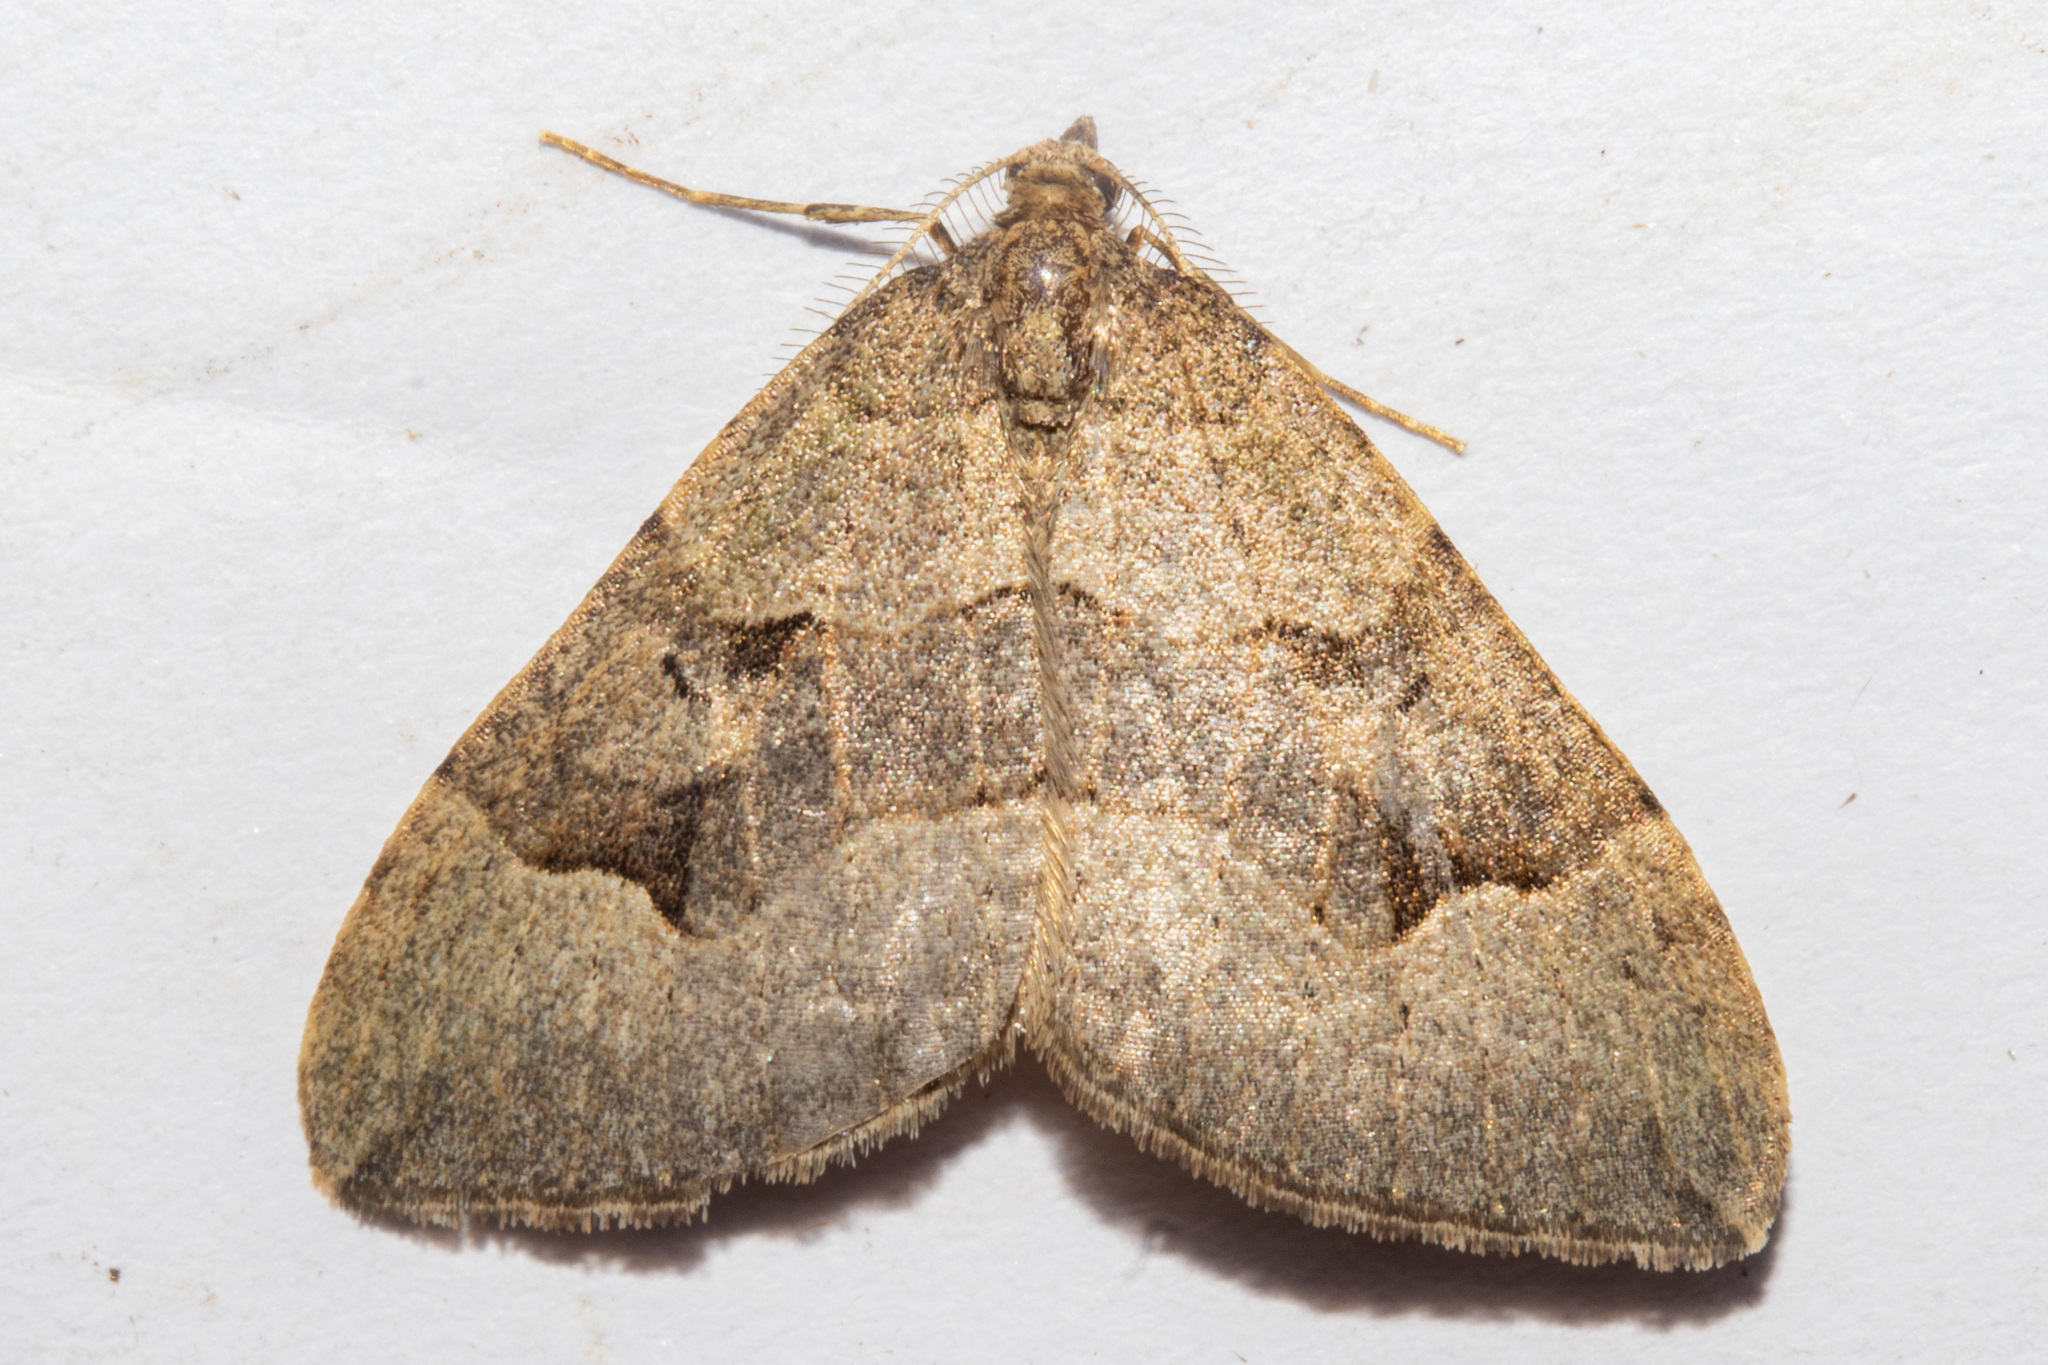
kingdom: Animalia
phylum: Arthropoda
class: Insecta
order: Lepidoptera
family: Geometridae
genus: Epyaxa
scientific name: Epyaxa rosearia
